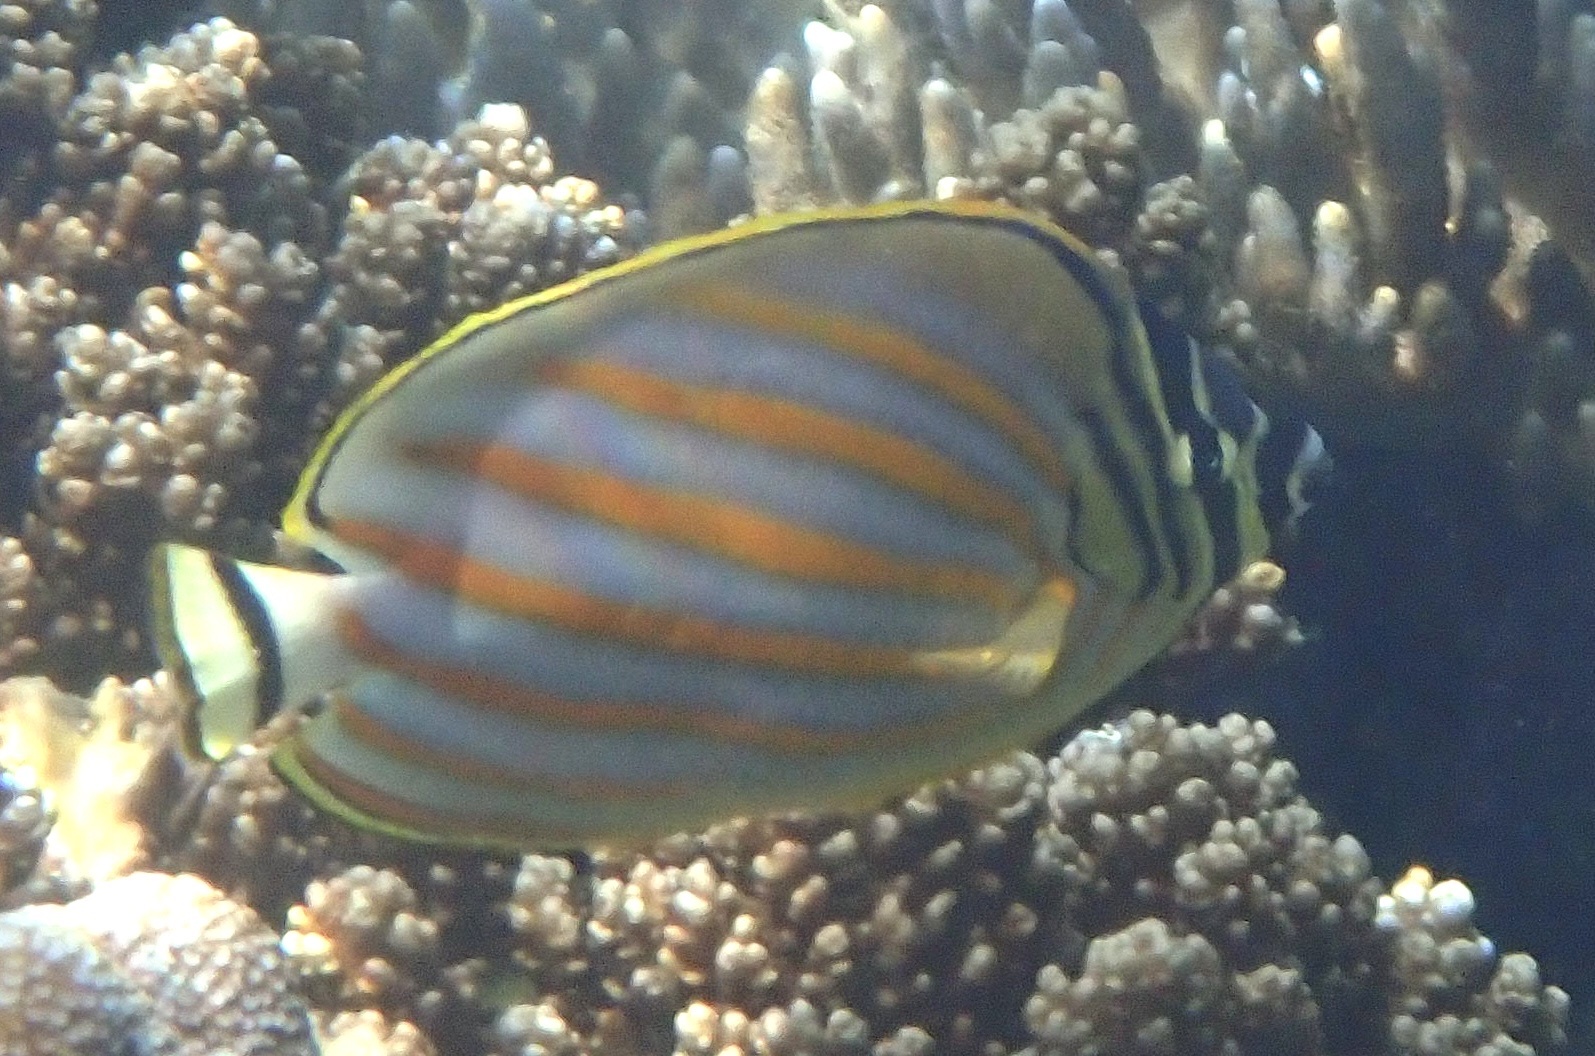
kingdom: Animalia
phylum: Chordata
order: Perciformes
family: Chaetodontidae
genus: Chaetodon
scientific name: Chaetodon ornatissimus
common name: Ornate butterflyfish
